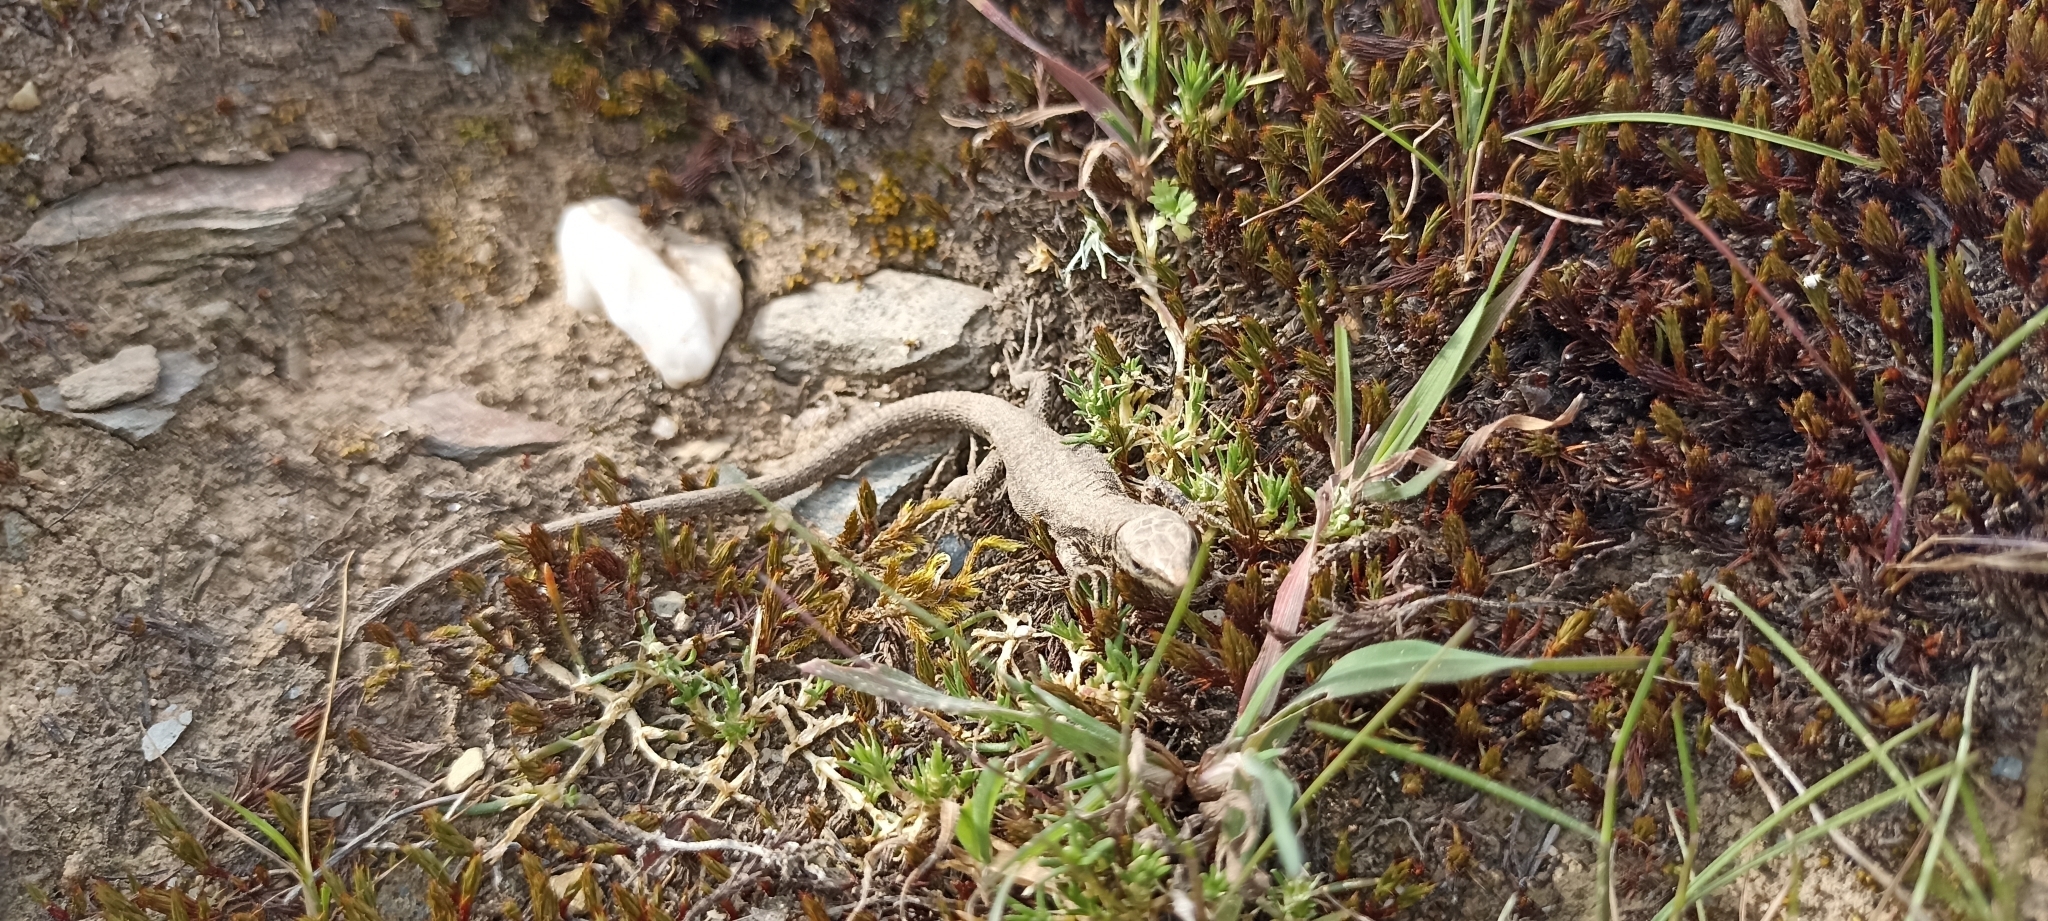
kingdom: Animalia
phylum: Chordata
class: Squamata
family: Lacertidae
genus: Podarcis
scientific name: Podarcis muralis
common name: Common wall lizard
